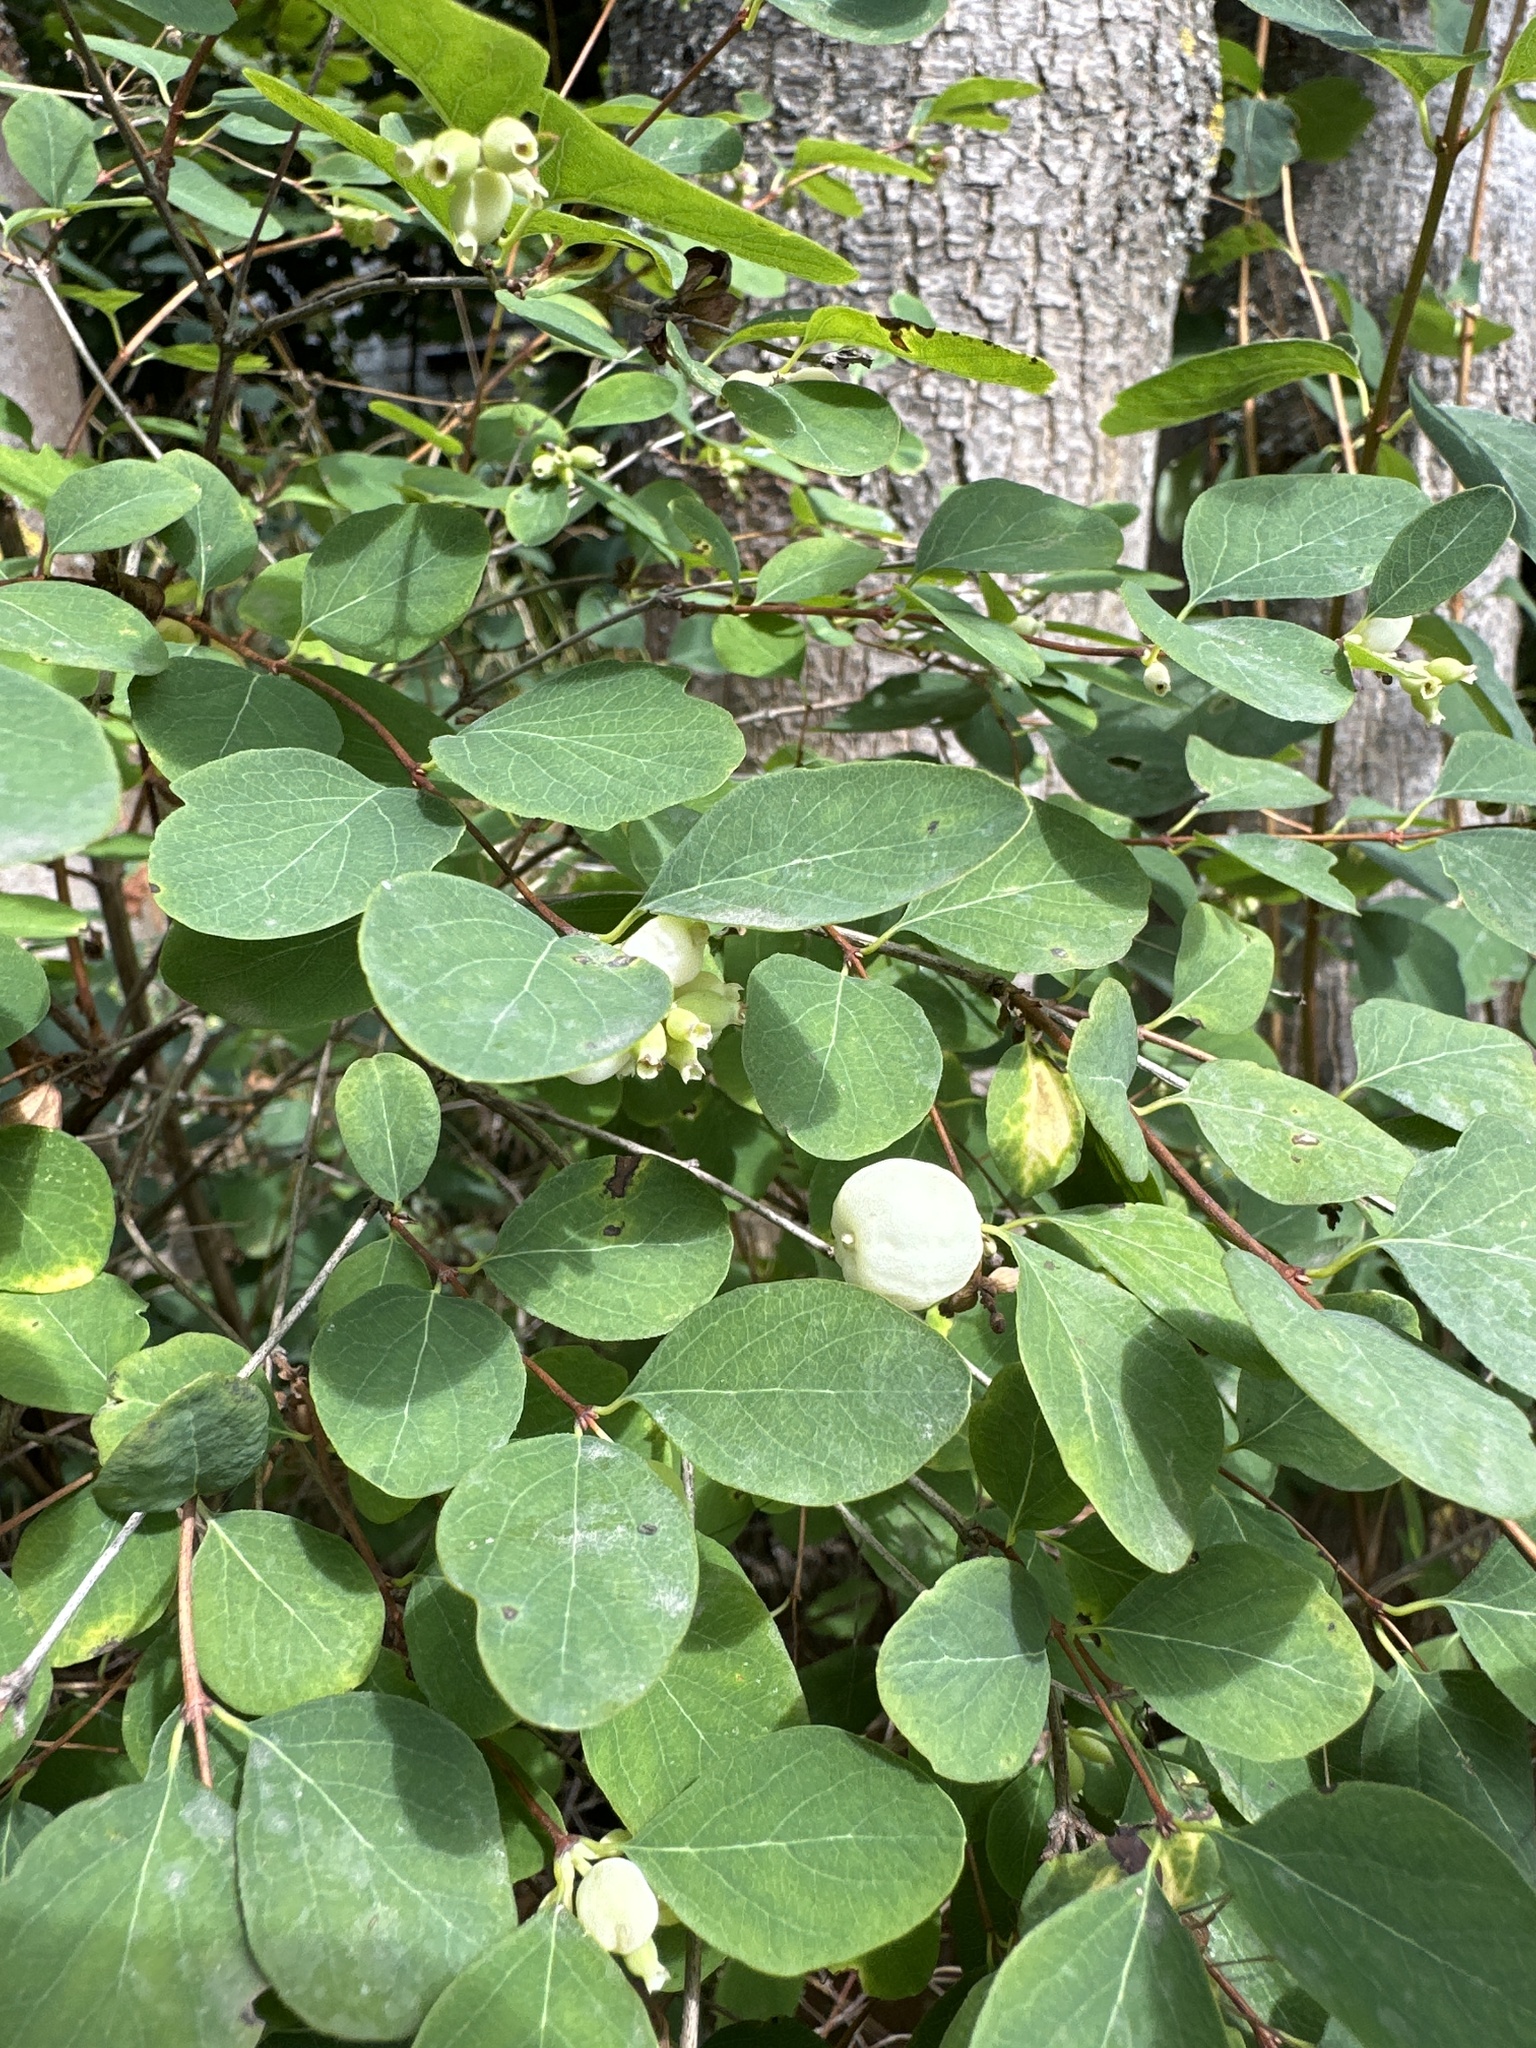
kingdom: Plantae
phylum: Tracheophyta
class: Magnoliopsida
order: Dipsacales
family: Caprifoliaceae
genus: Symphoricarpos
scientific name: Symphoricarpos albus
